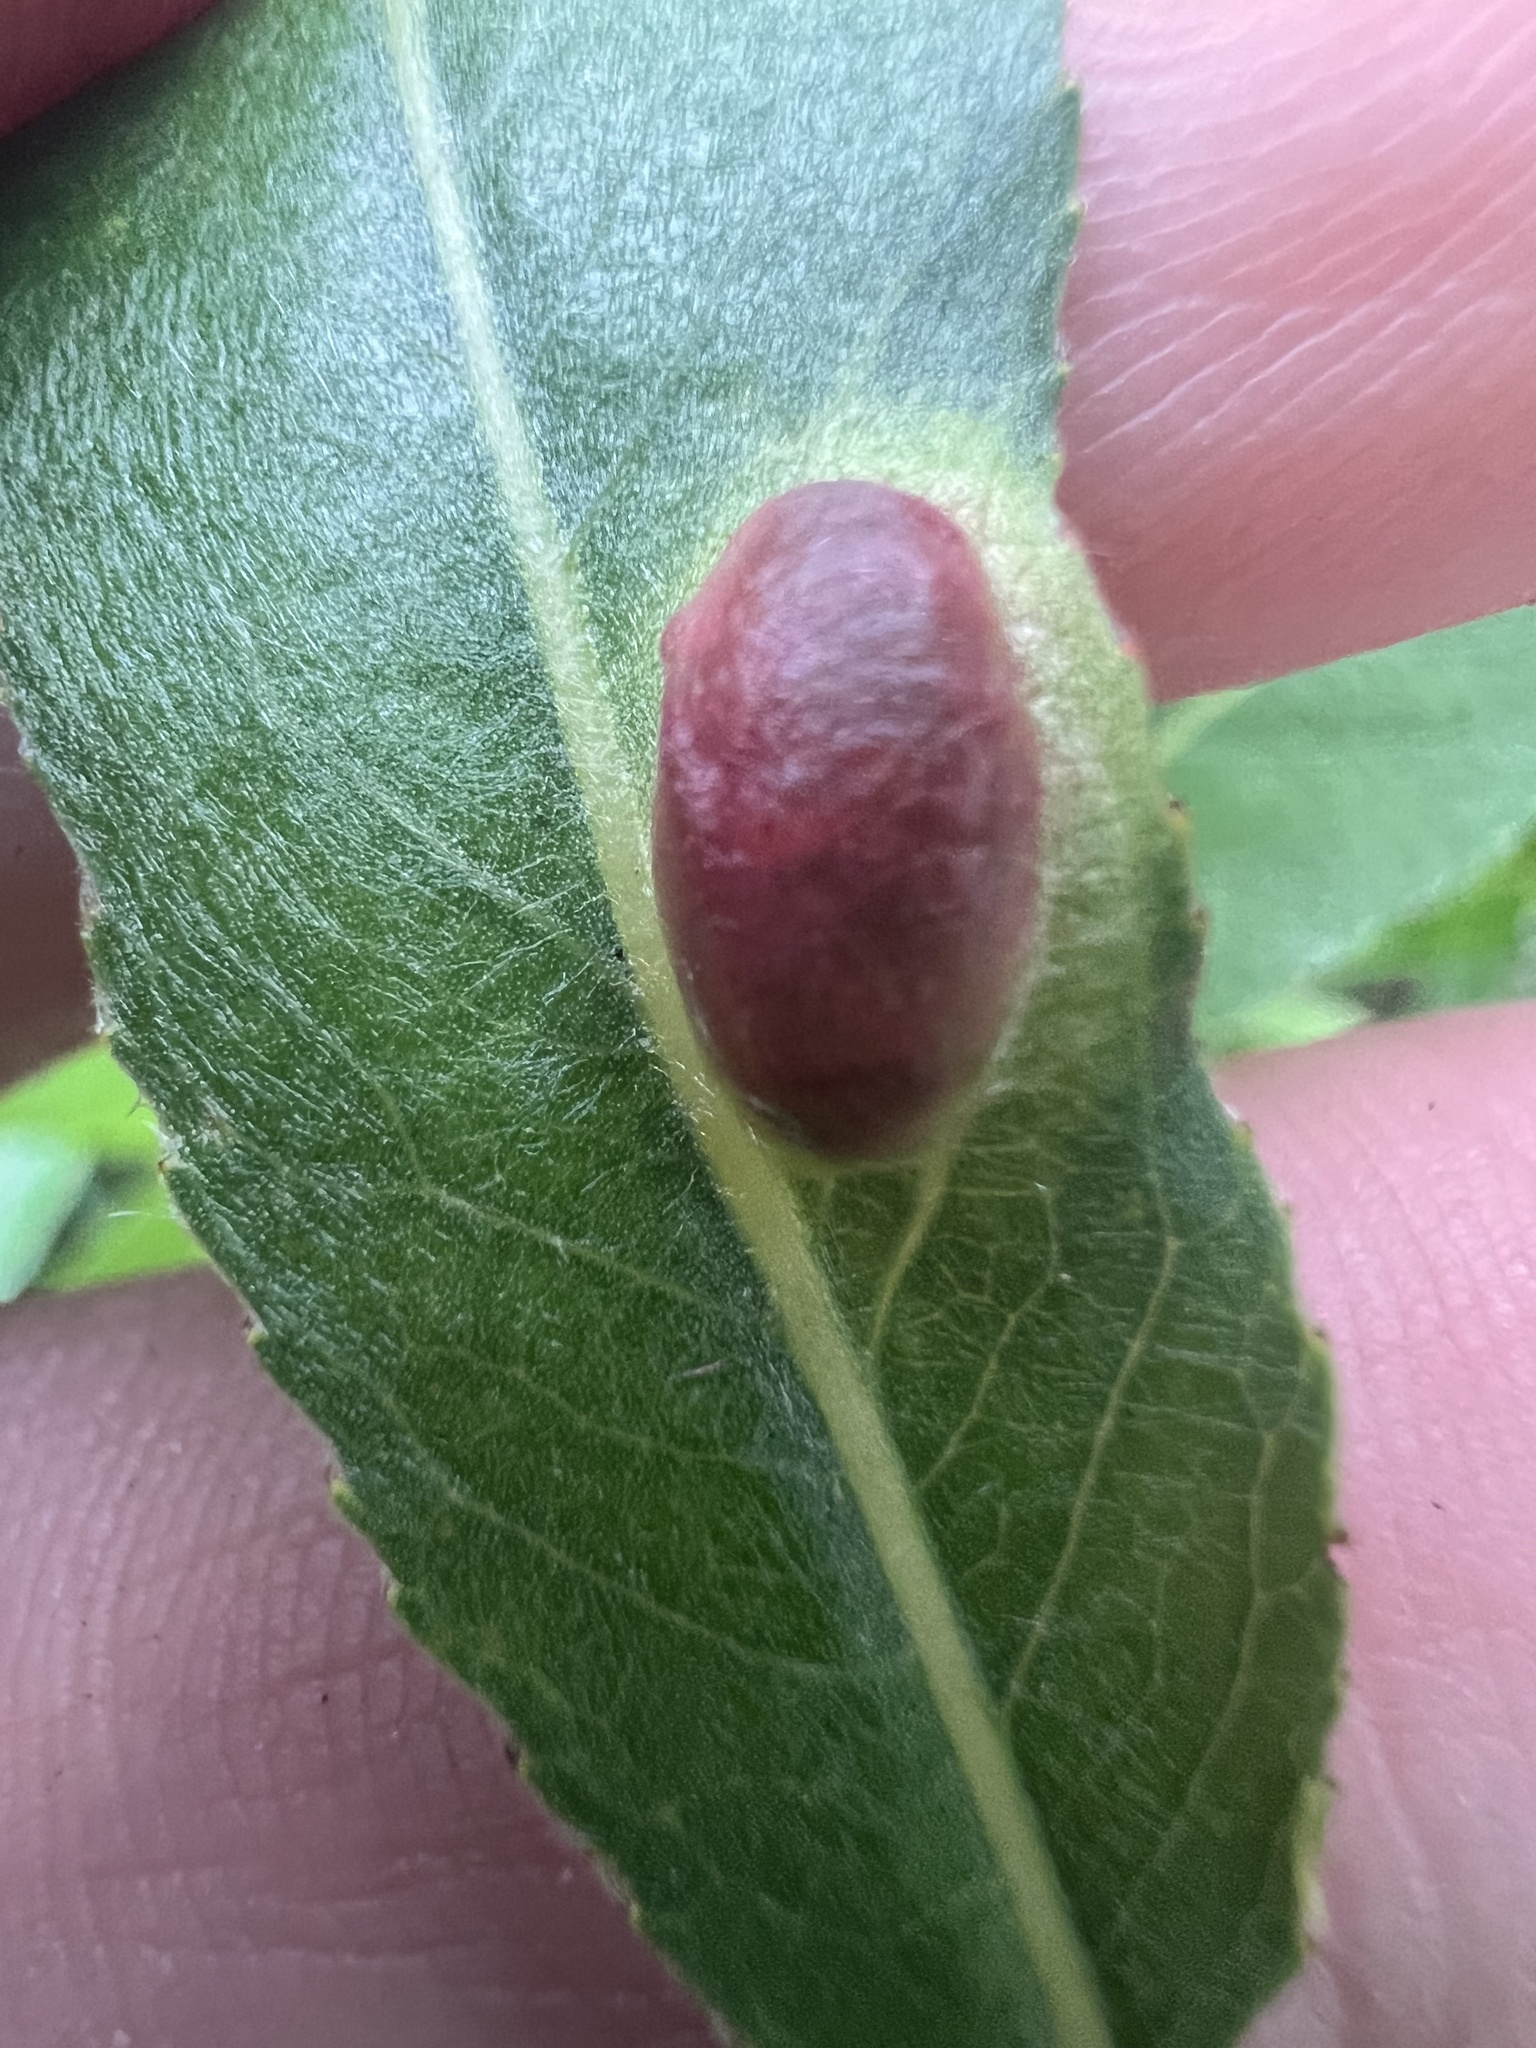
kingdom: Animalia
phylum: Arthropoda
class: Insecta
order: Hymenoptera
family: Tenthredinidae
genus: Pontania
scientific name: Pontania proxima
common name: Common sawfly
